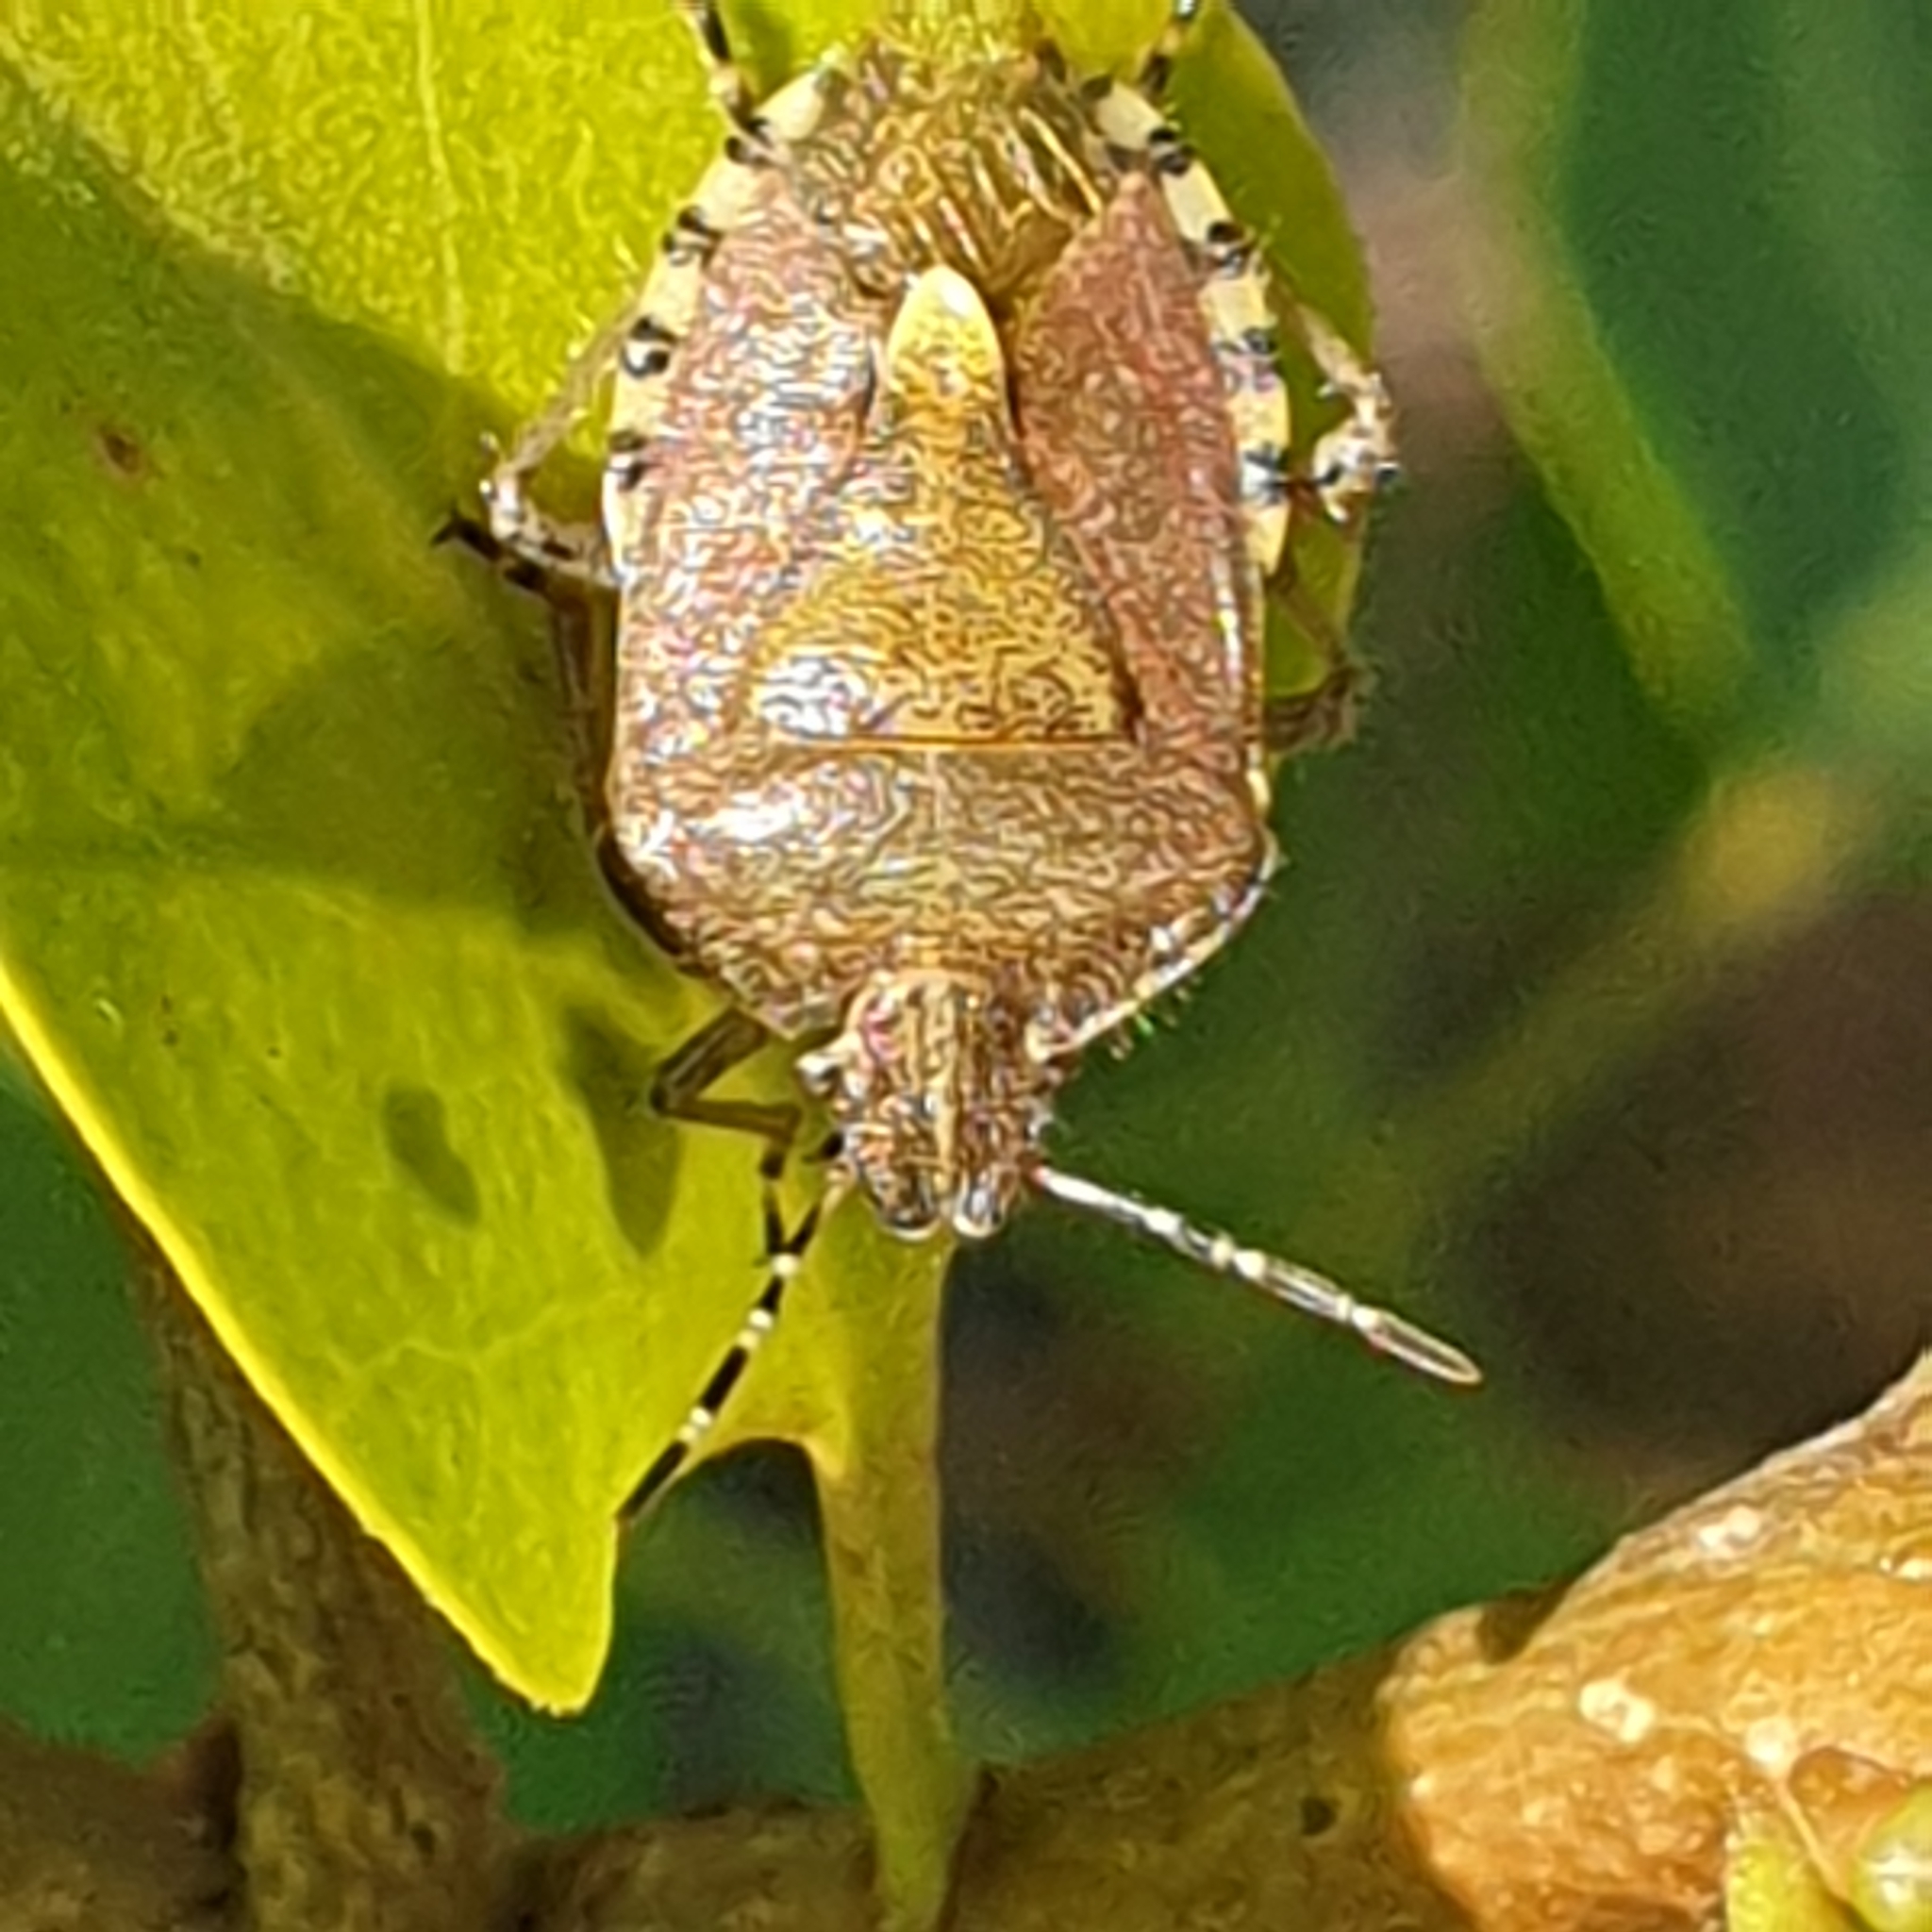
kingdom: Animalia
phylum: Arthropoda
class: Insecta
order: Hemiptera
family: Pentatomidae
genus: Dolycoris
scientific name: Dolycoris baccarum
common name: Sloe bug
